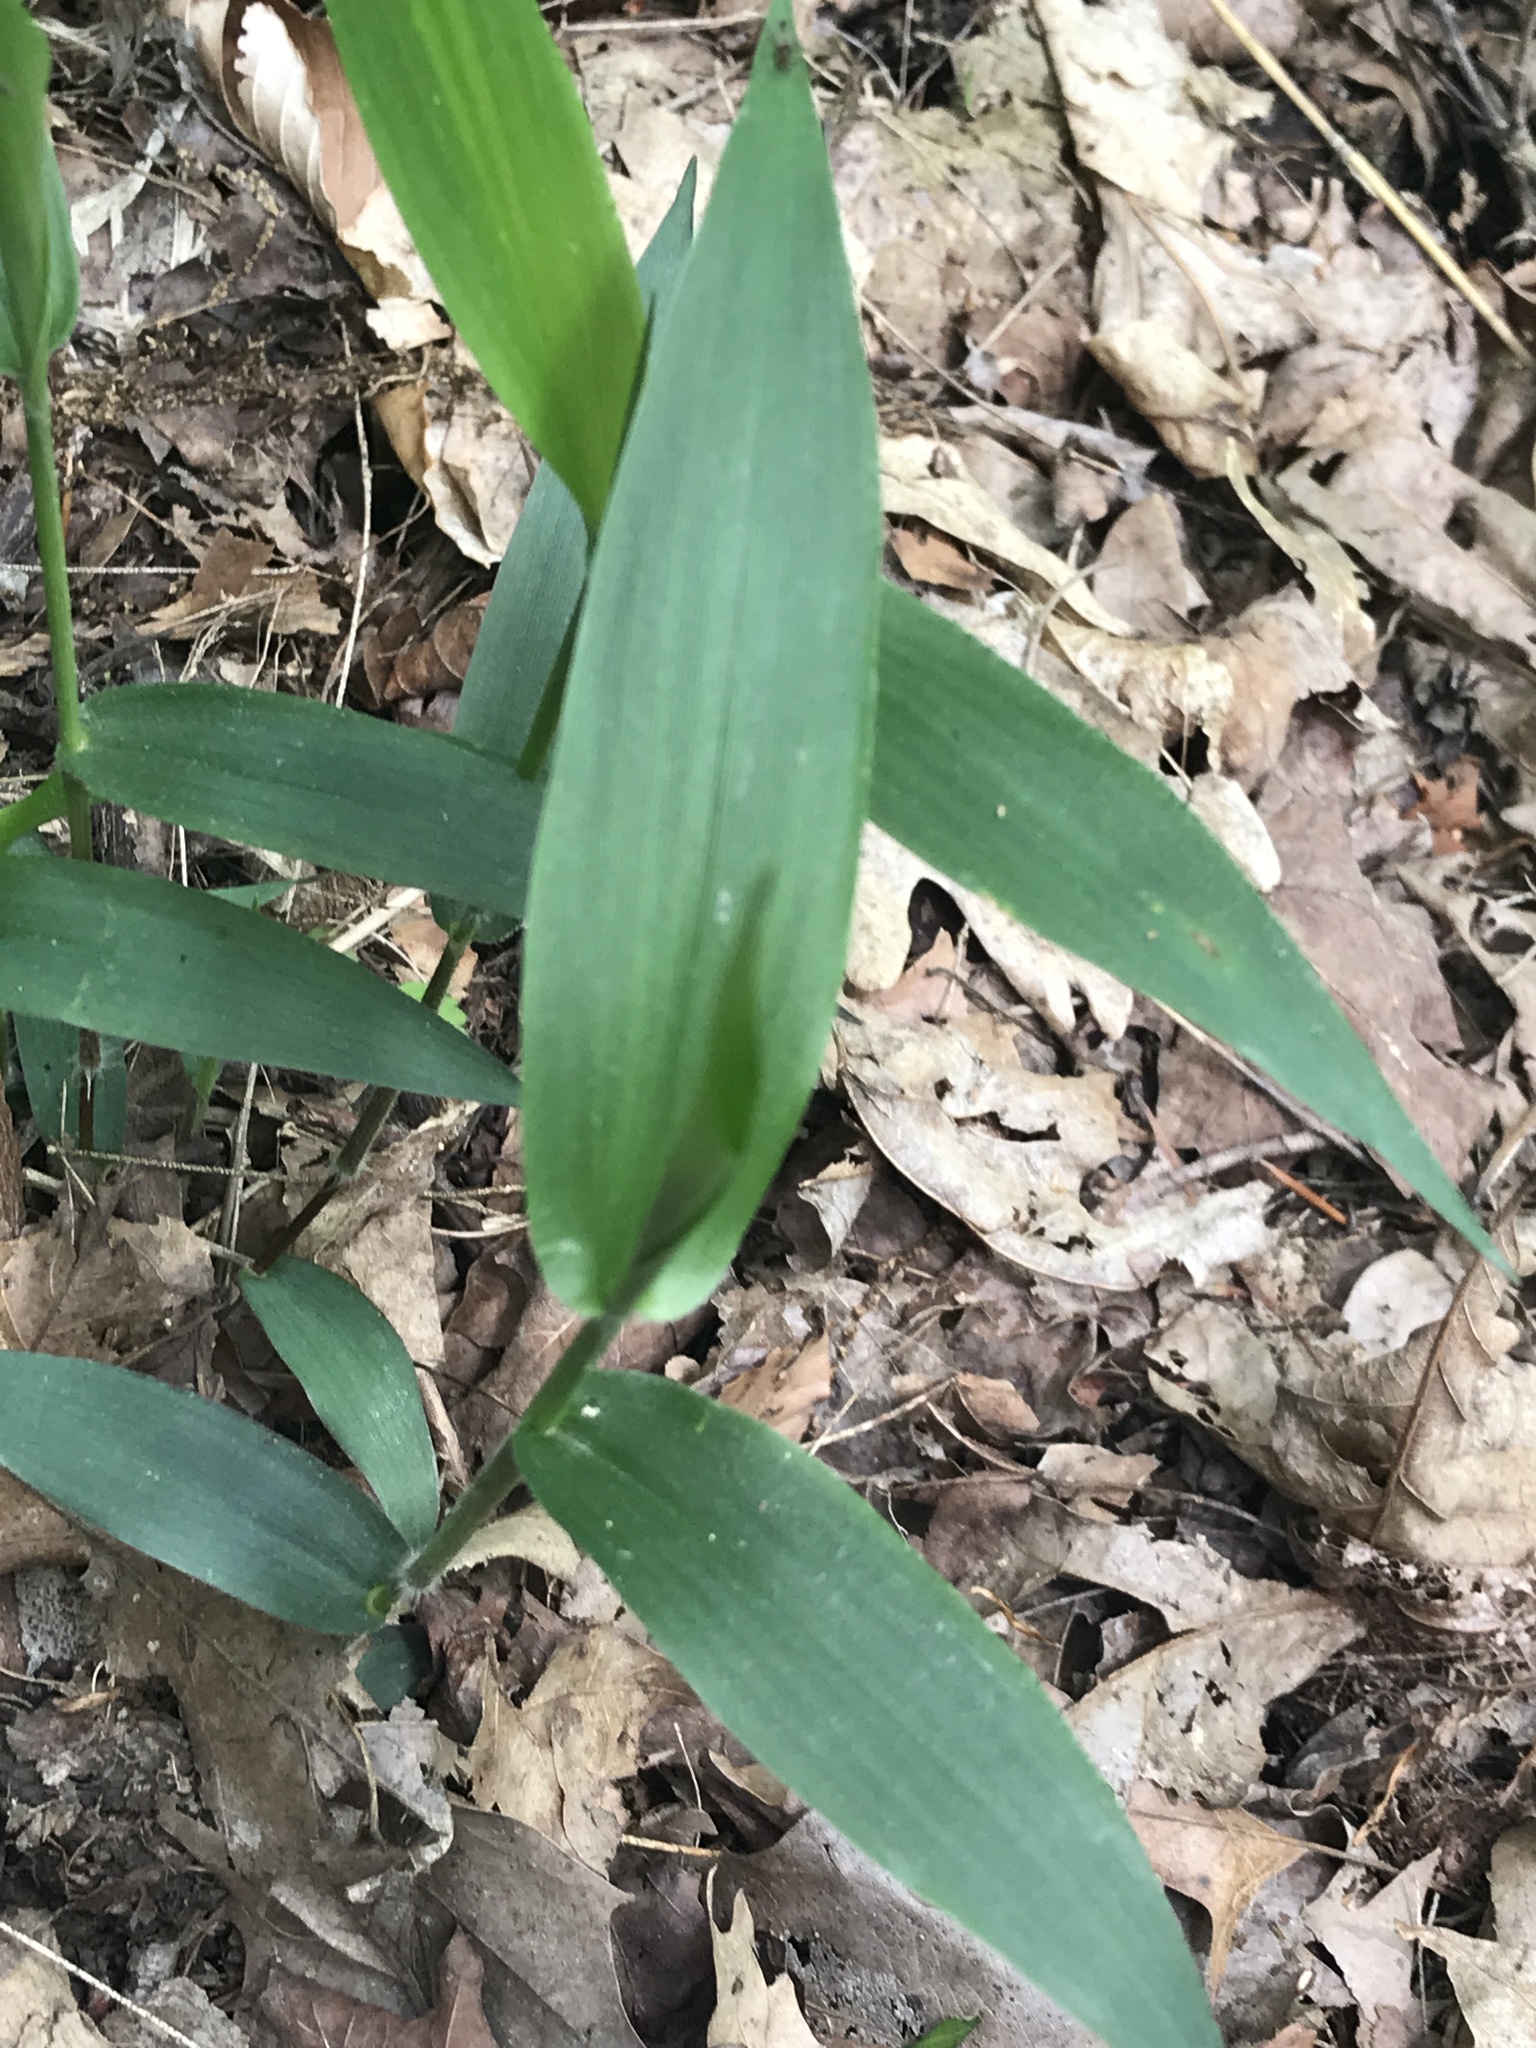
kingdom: Plantae
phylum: Tracheophyta
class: Liliopsida
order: Poales
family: Poaceae
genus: Dichanthelium
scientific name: Dichanthelium boscii
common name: Bosc's panic grass
